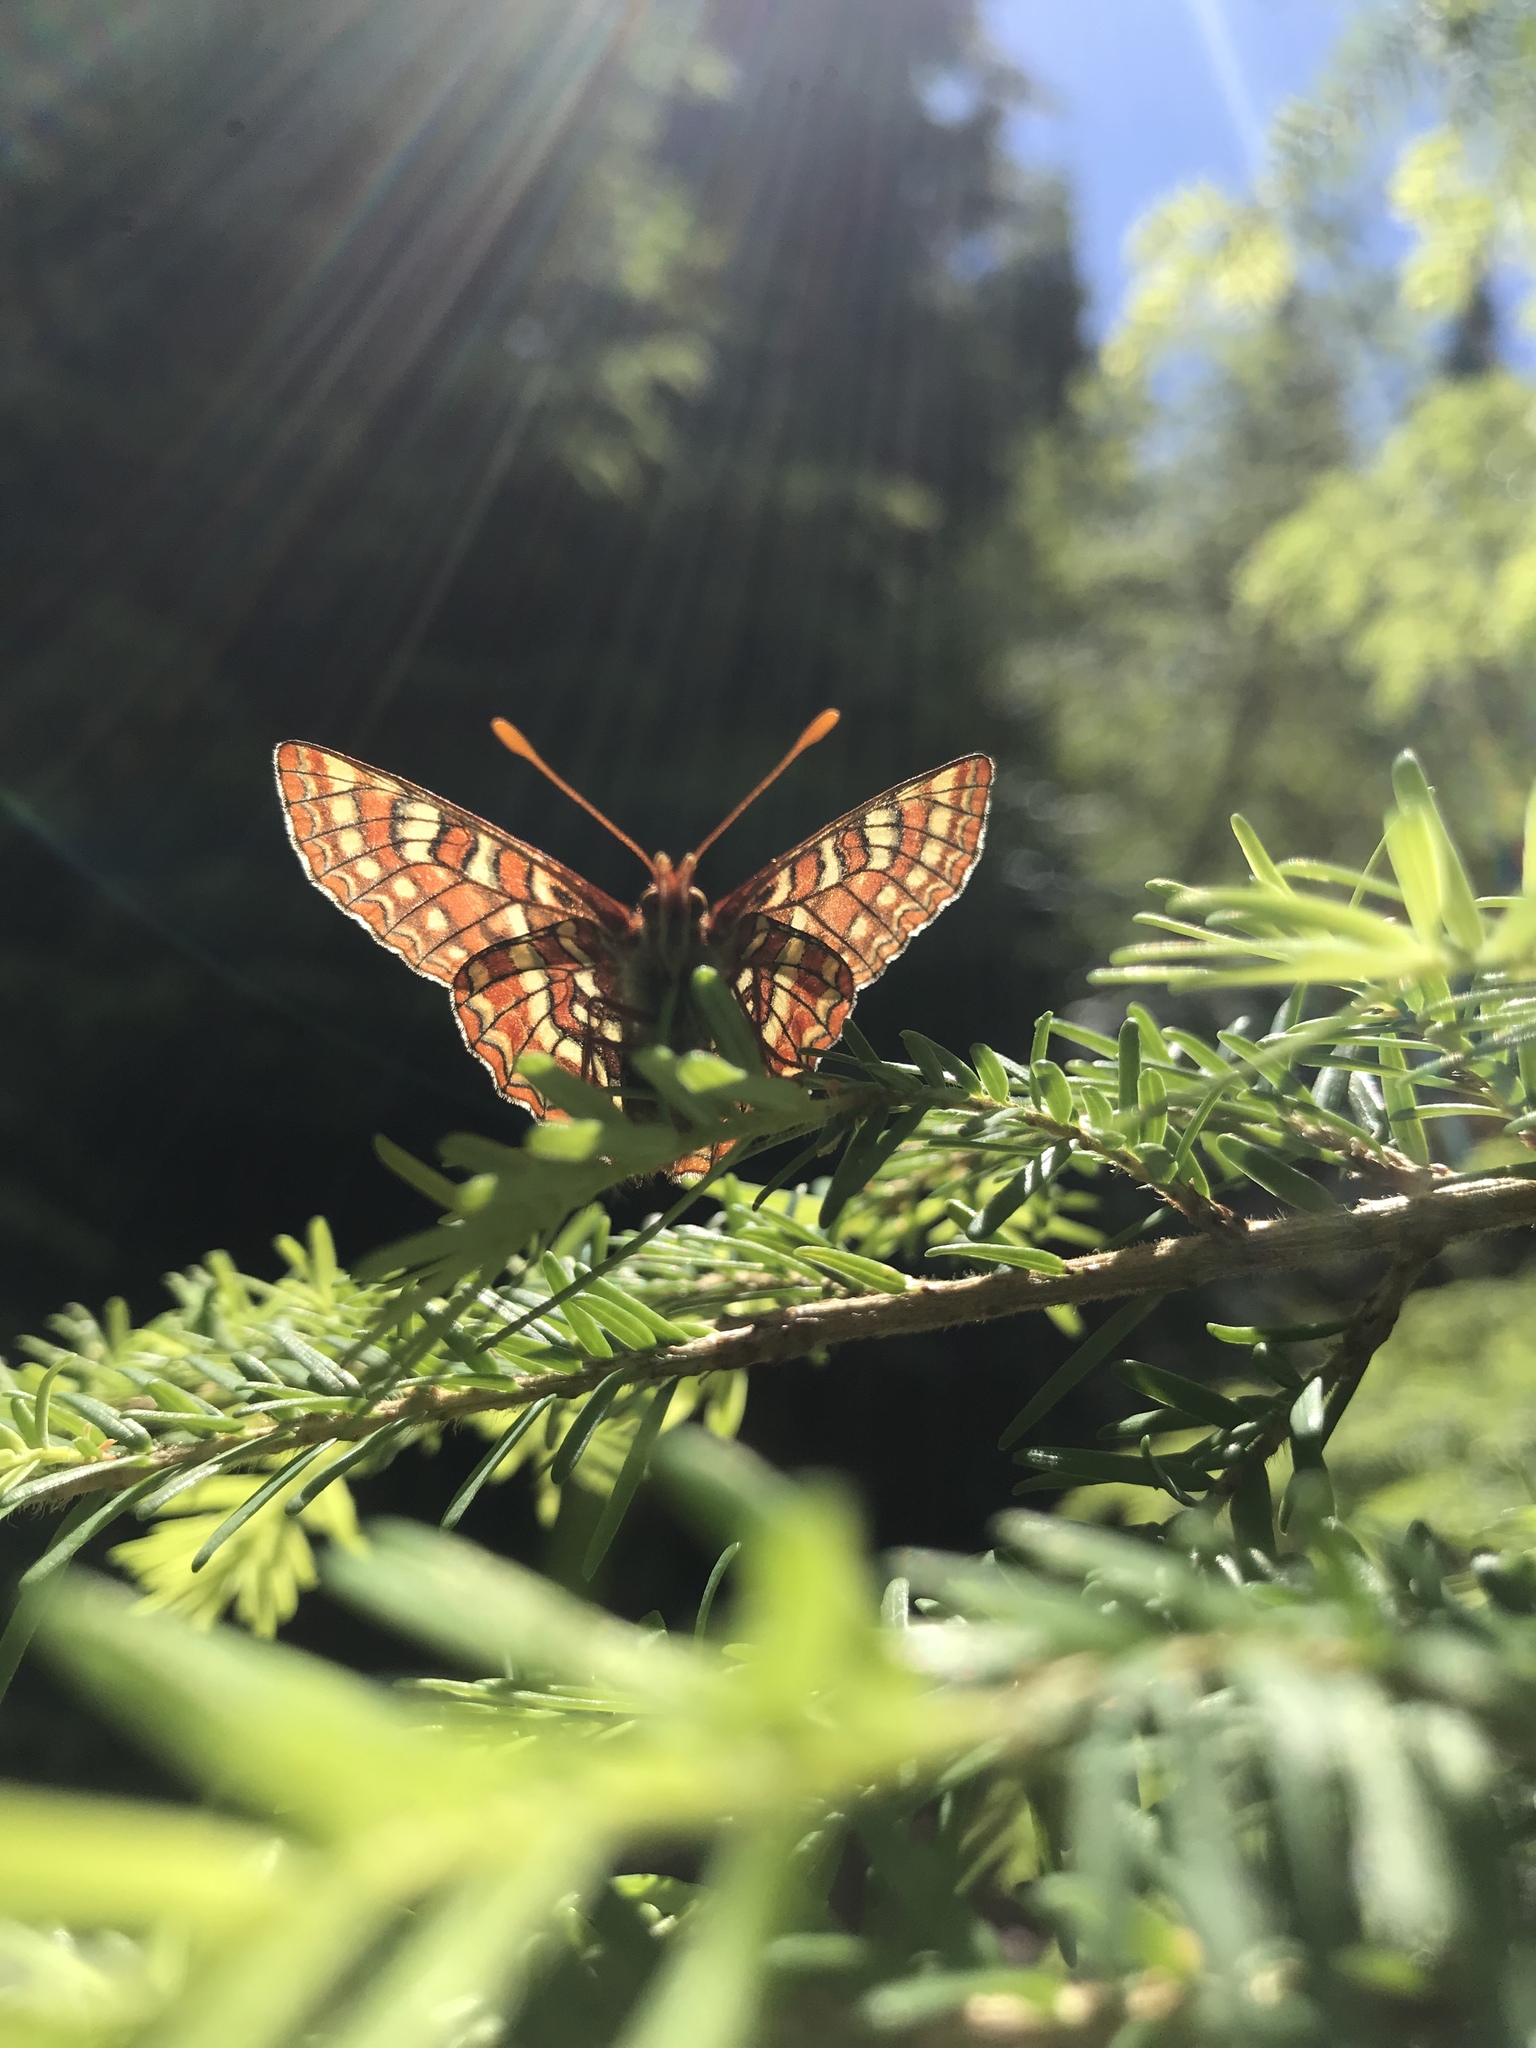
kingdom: Animalia
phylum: Arthropoda
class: Insecta
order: Lepidoptera
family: Nymphalidae
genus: Occidryas
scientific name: Occidryas editha
